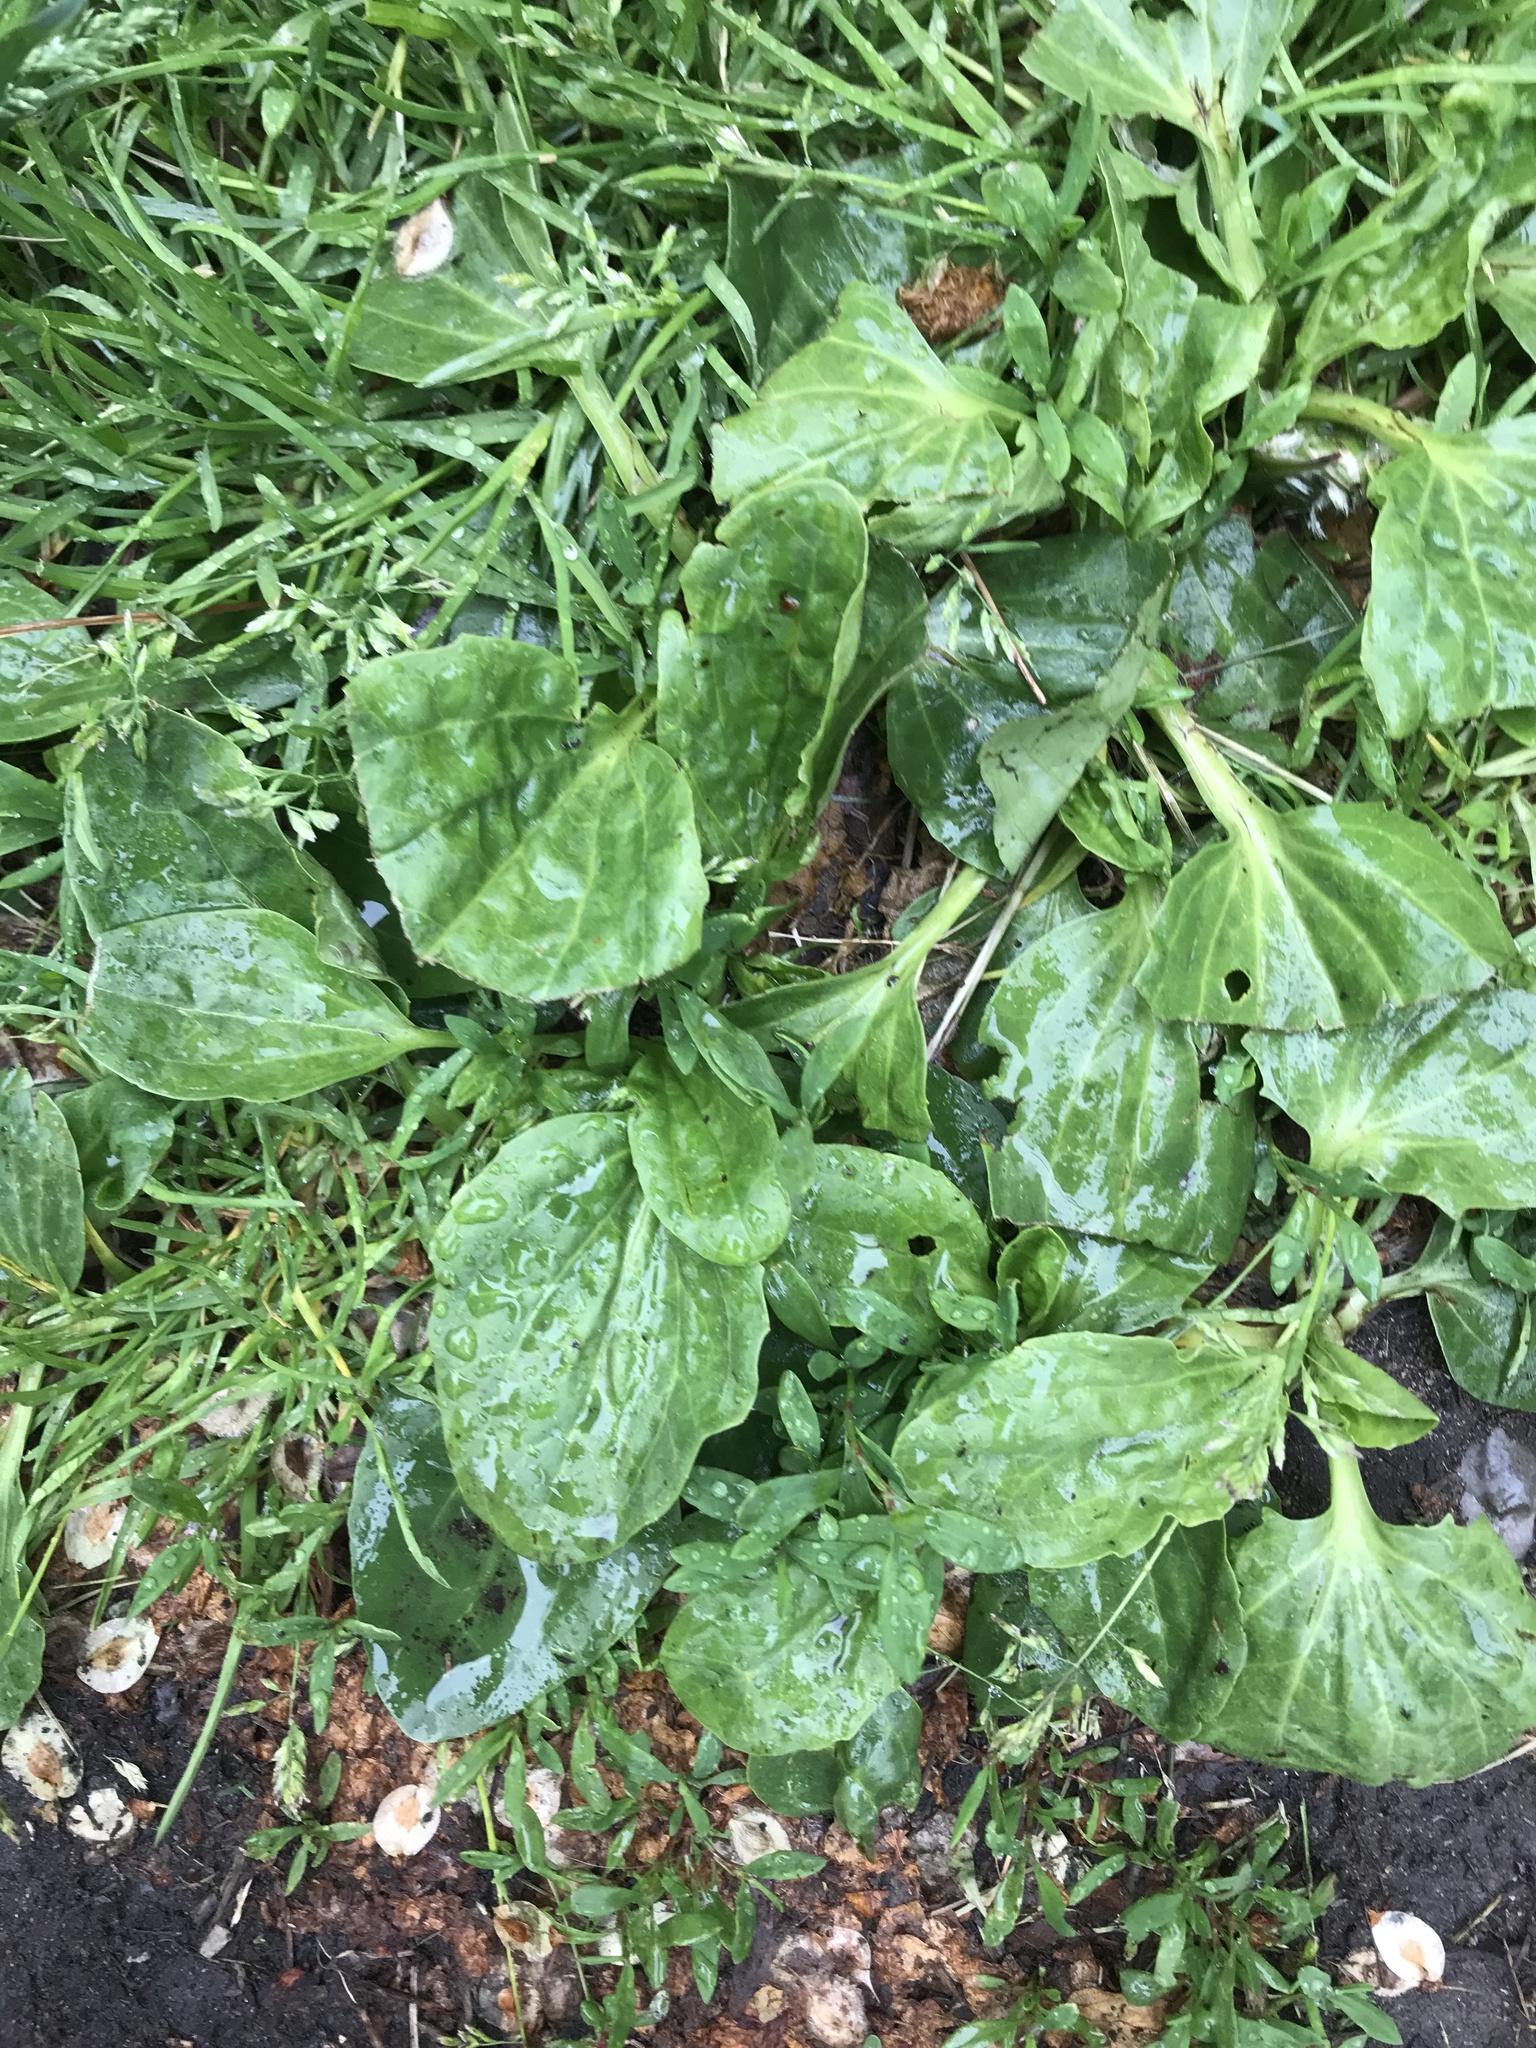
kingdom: Plantae
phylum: Tracheophyta
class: Magnoliopsida
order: Lamiales
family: Plantaginaceae
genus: Plantago
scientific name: Plantago major
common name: Common plantain
